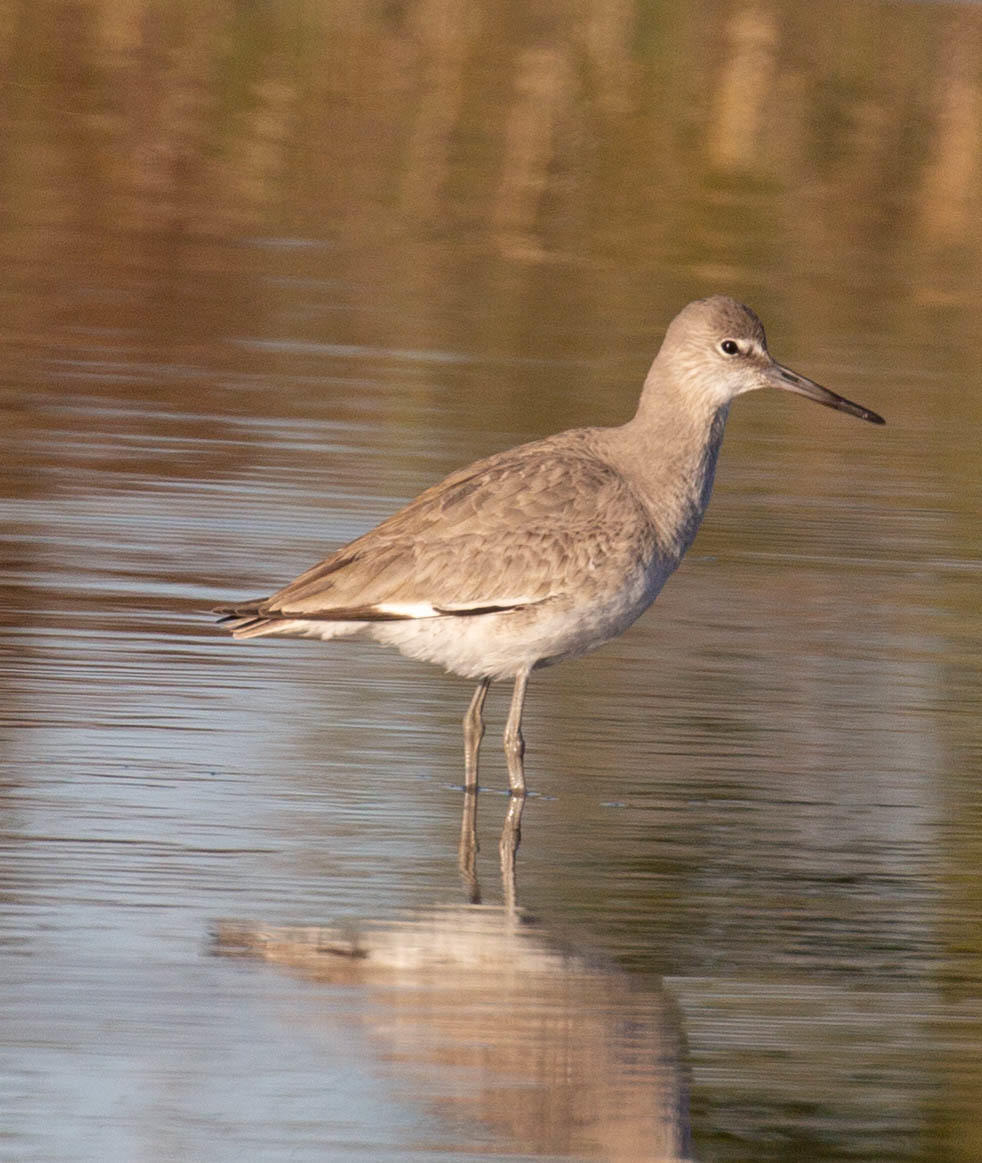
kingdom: Animalia
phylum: Chordata
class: Aves
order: Charadriiformes
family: Scolopacidae
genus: Tringa
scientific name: Tringa semipalmata
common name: Willet
